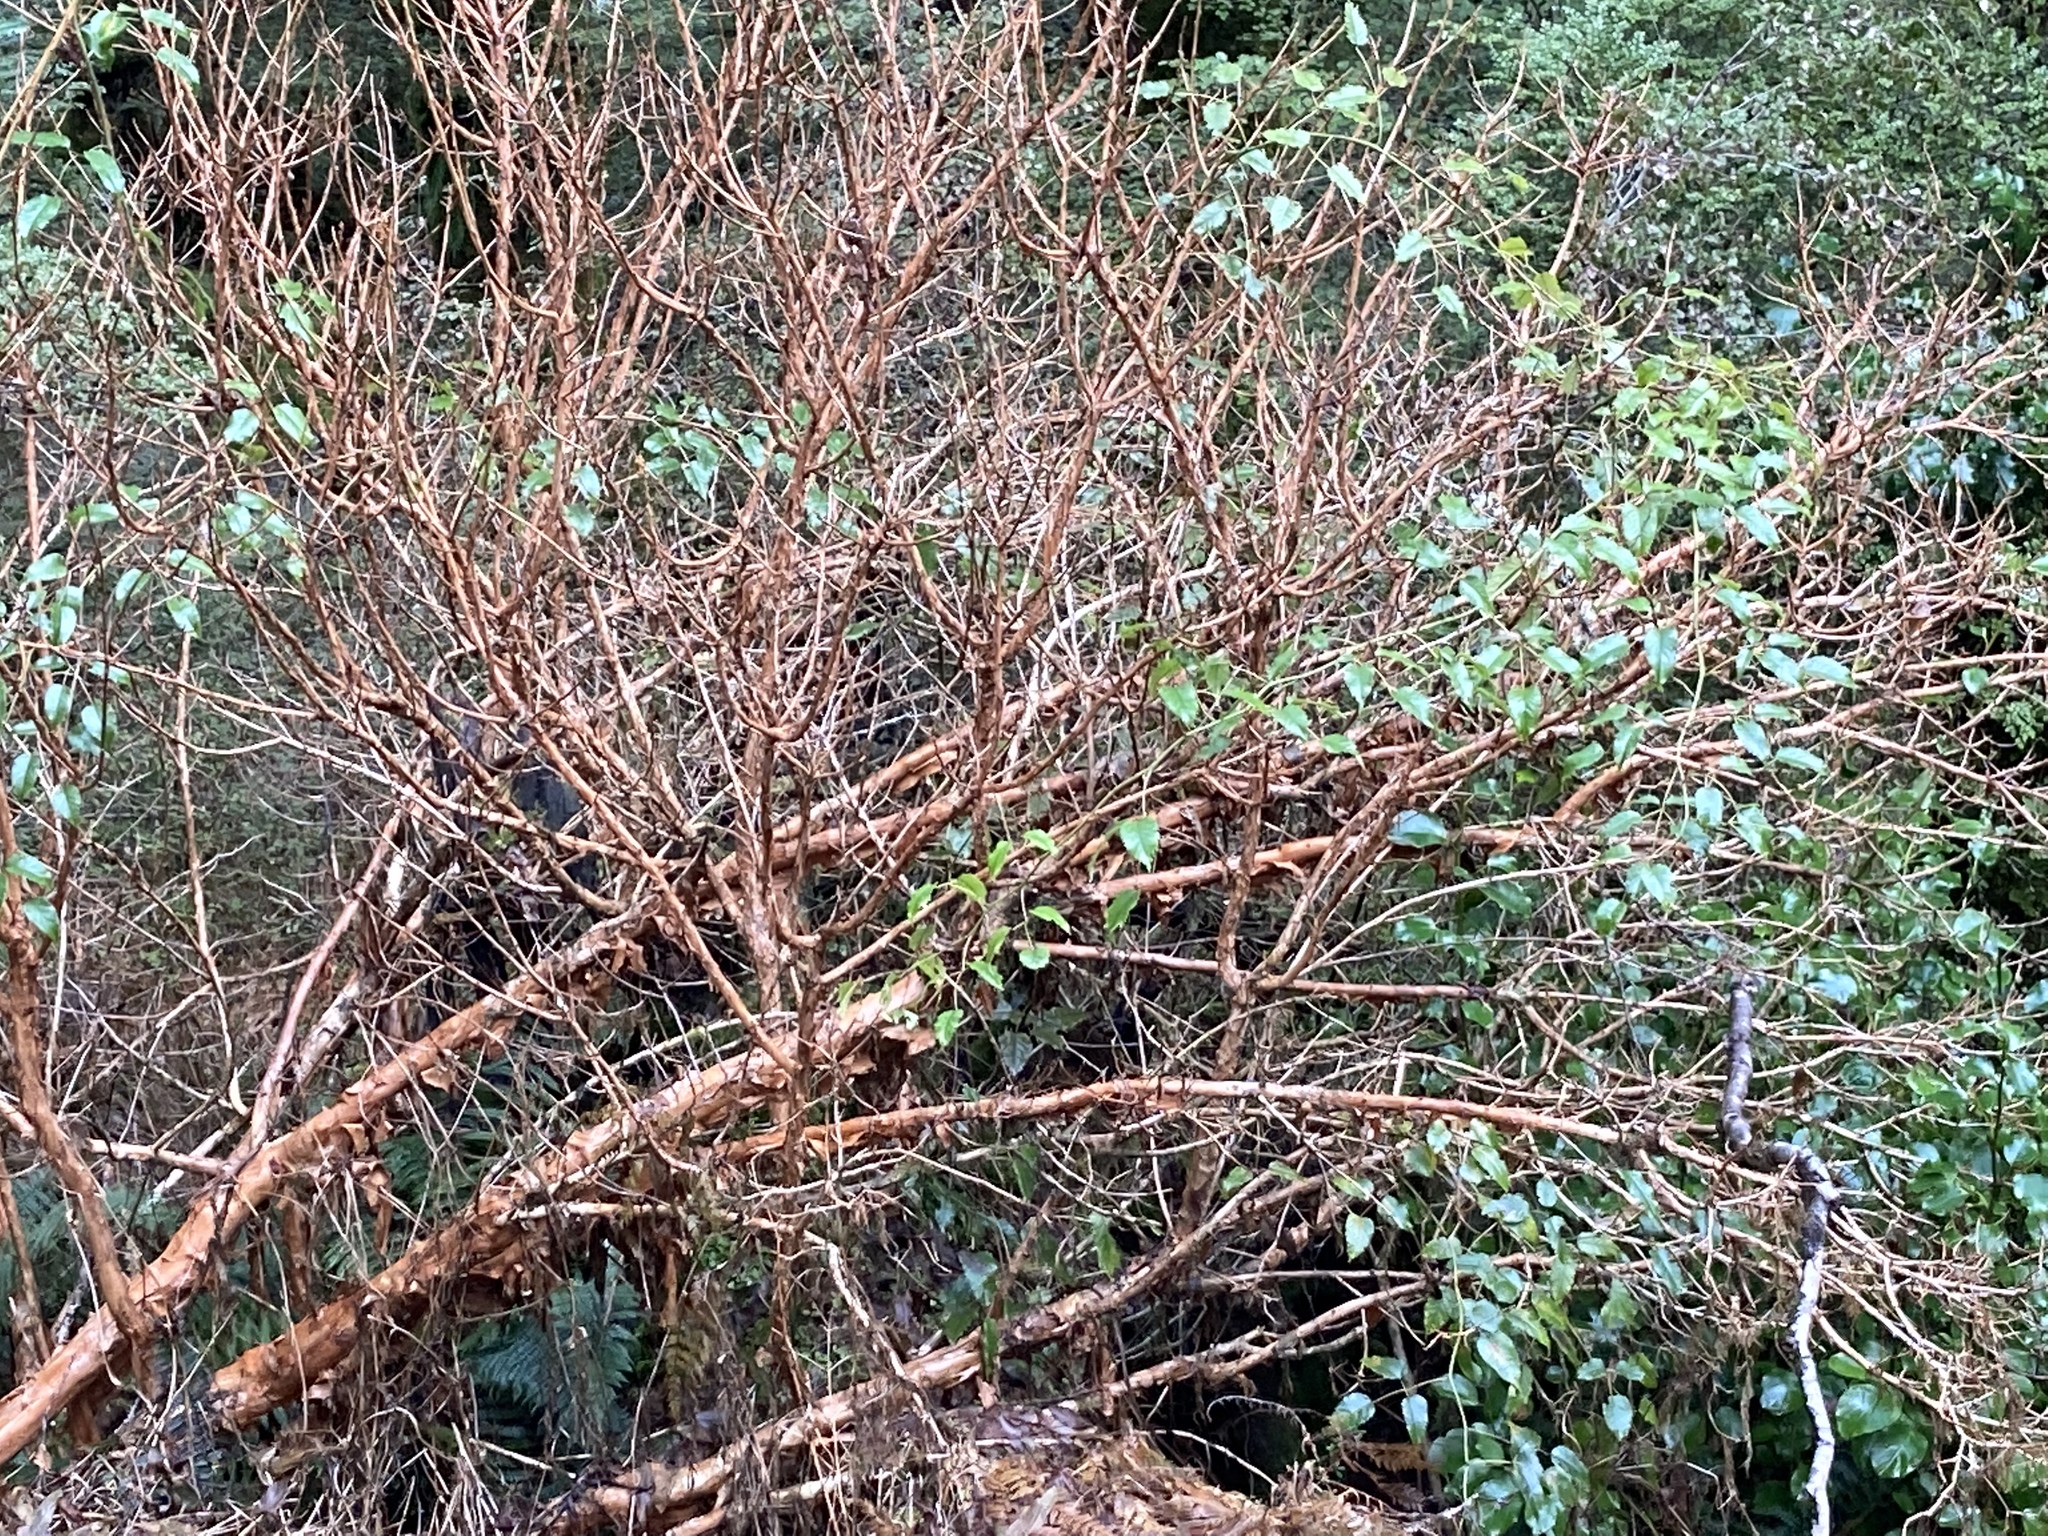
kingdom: Plantae
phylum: Tracheophyta
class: Magnoliopsida
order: Myrtales
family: Onagraceae
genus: Fuchsia
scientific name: Fuchsia excorticata
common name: Tree fuchsia
